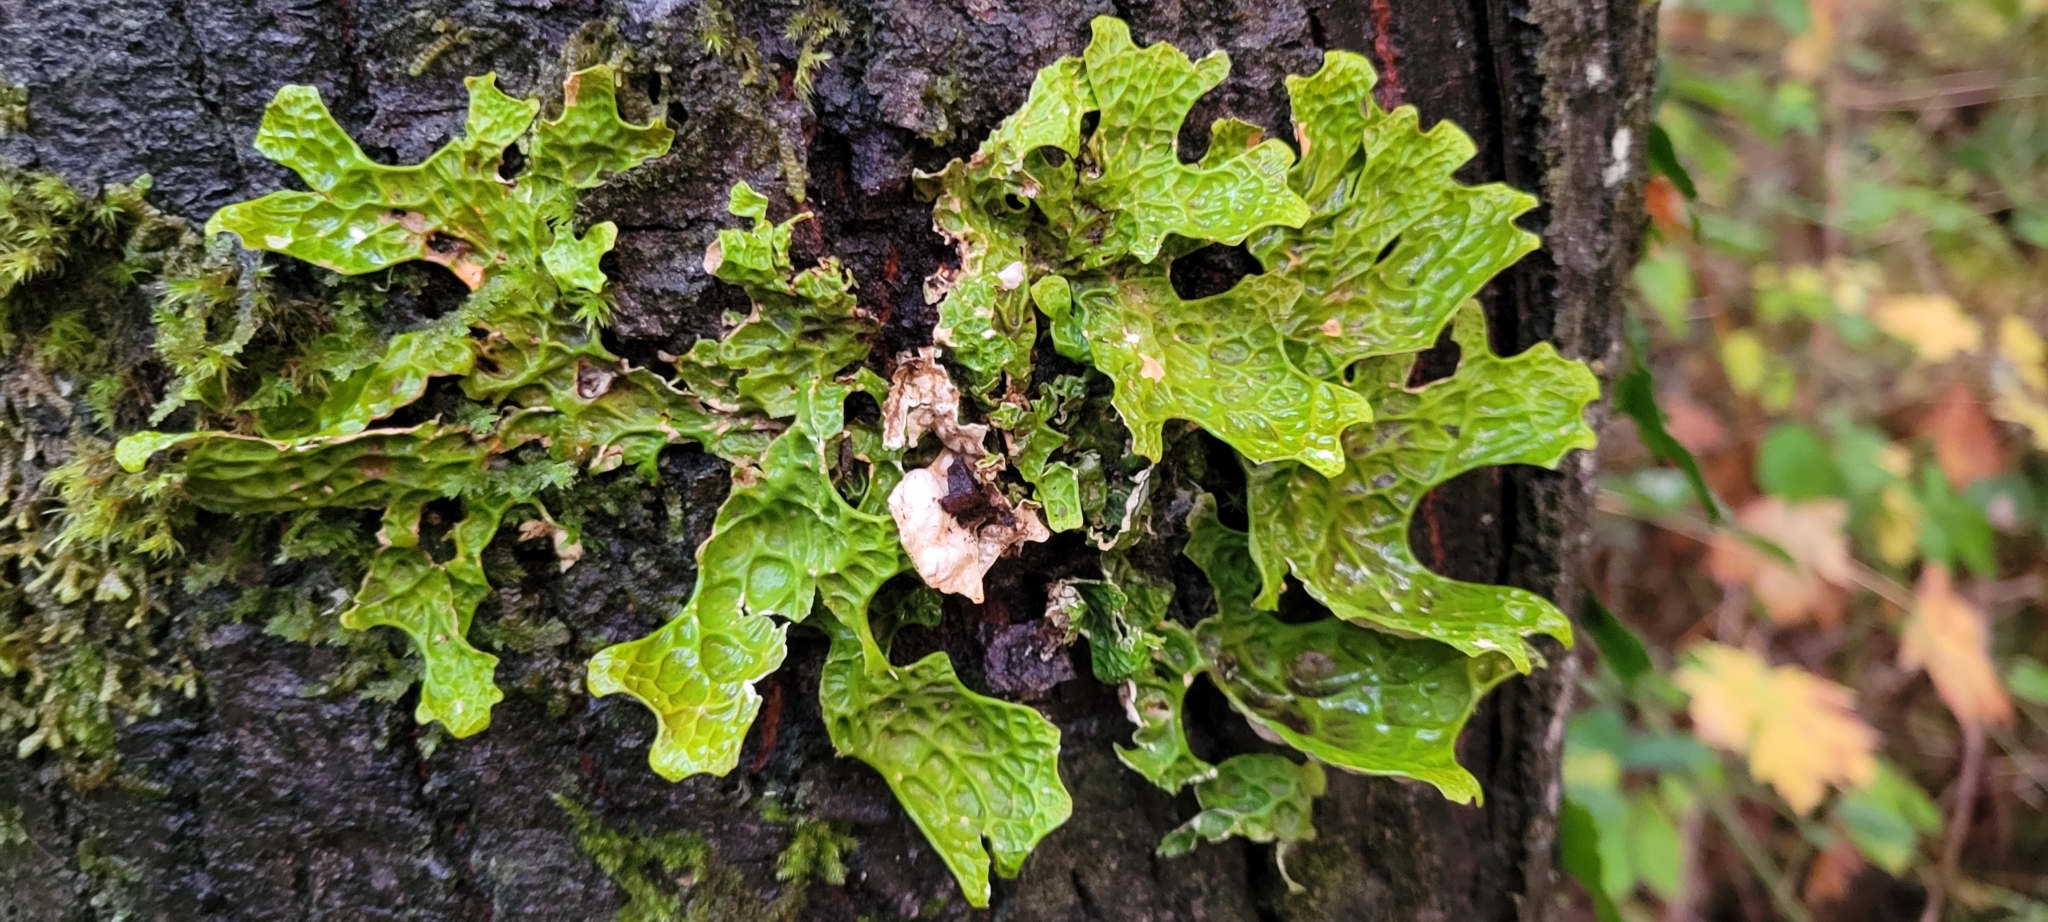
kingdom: Fungi
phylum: Ascomycota
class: Lecanoromycetes
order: Peltigerales
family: Lobariaceae
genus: Lobaria
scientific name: Lobaria pulmonaria
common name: Lungwort
